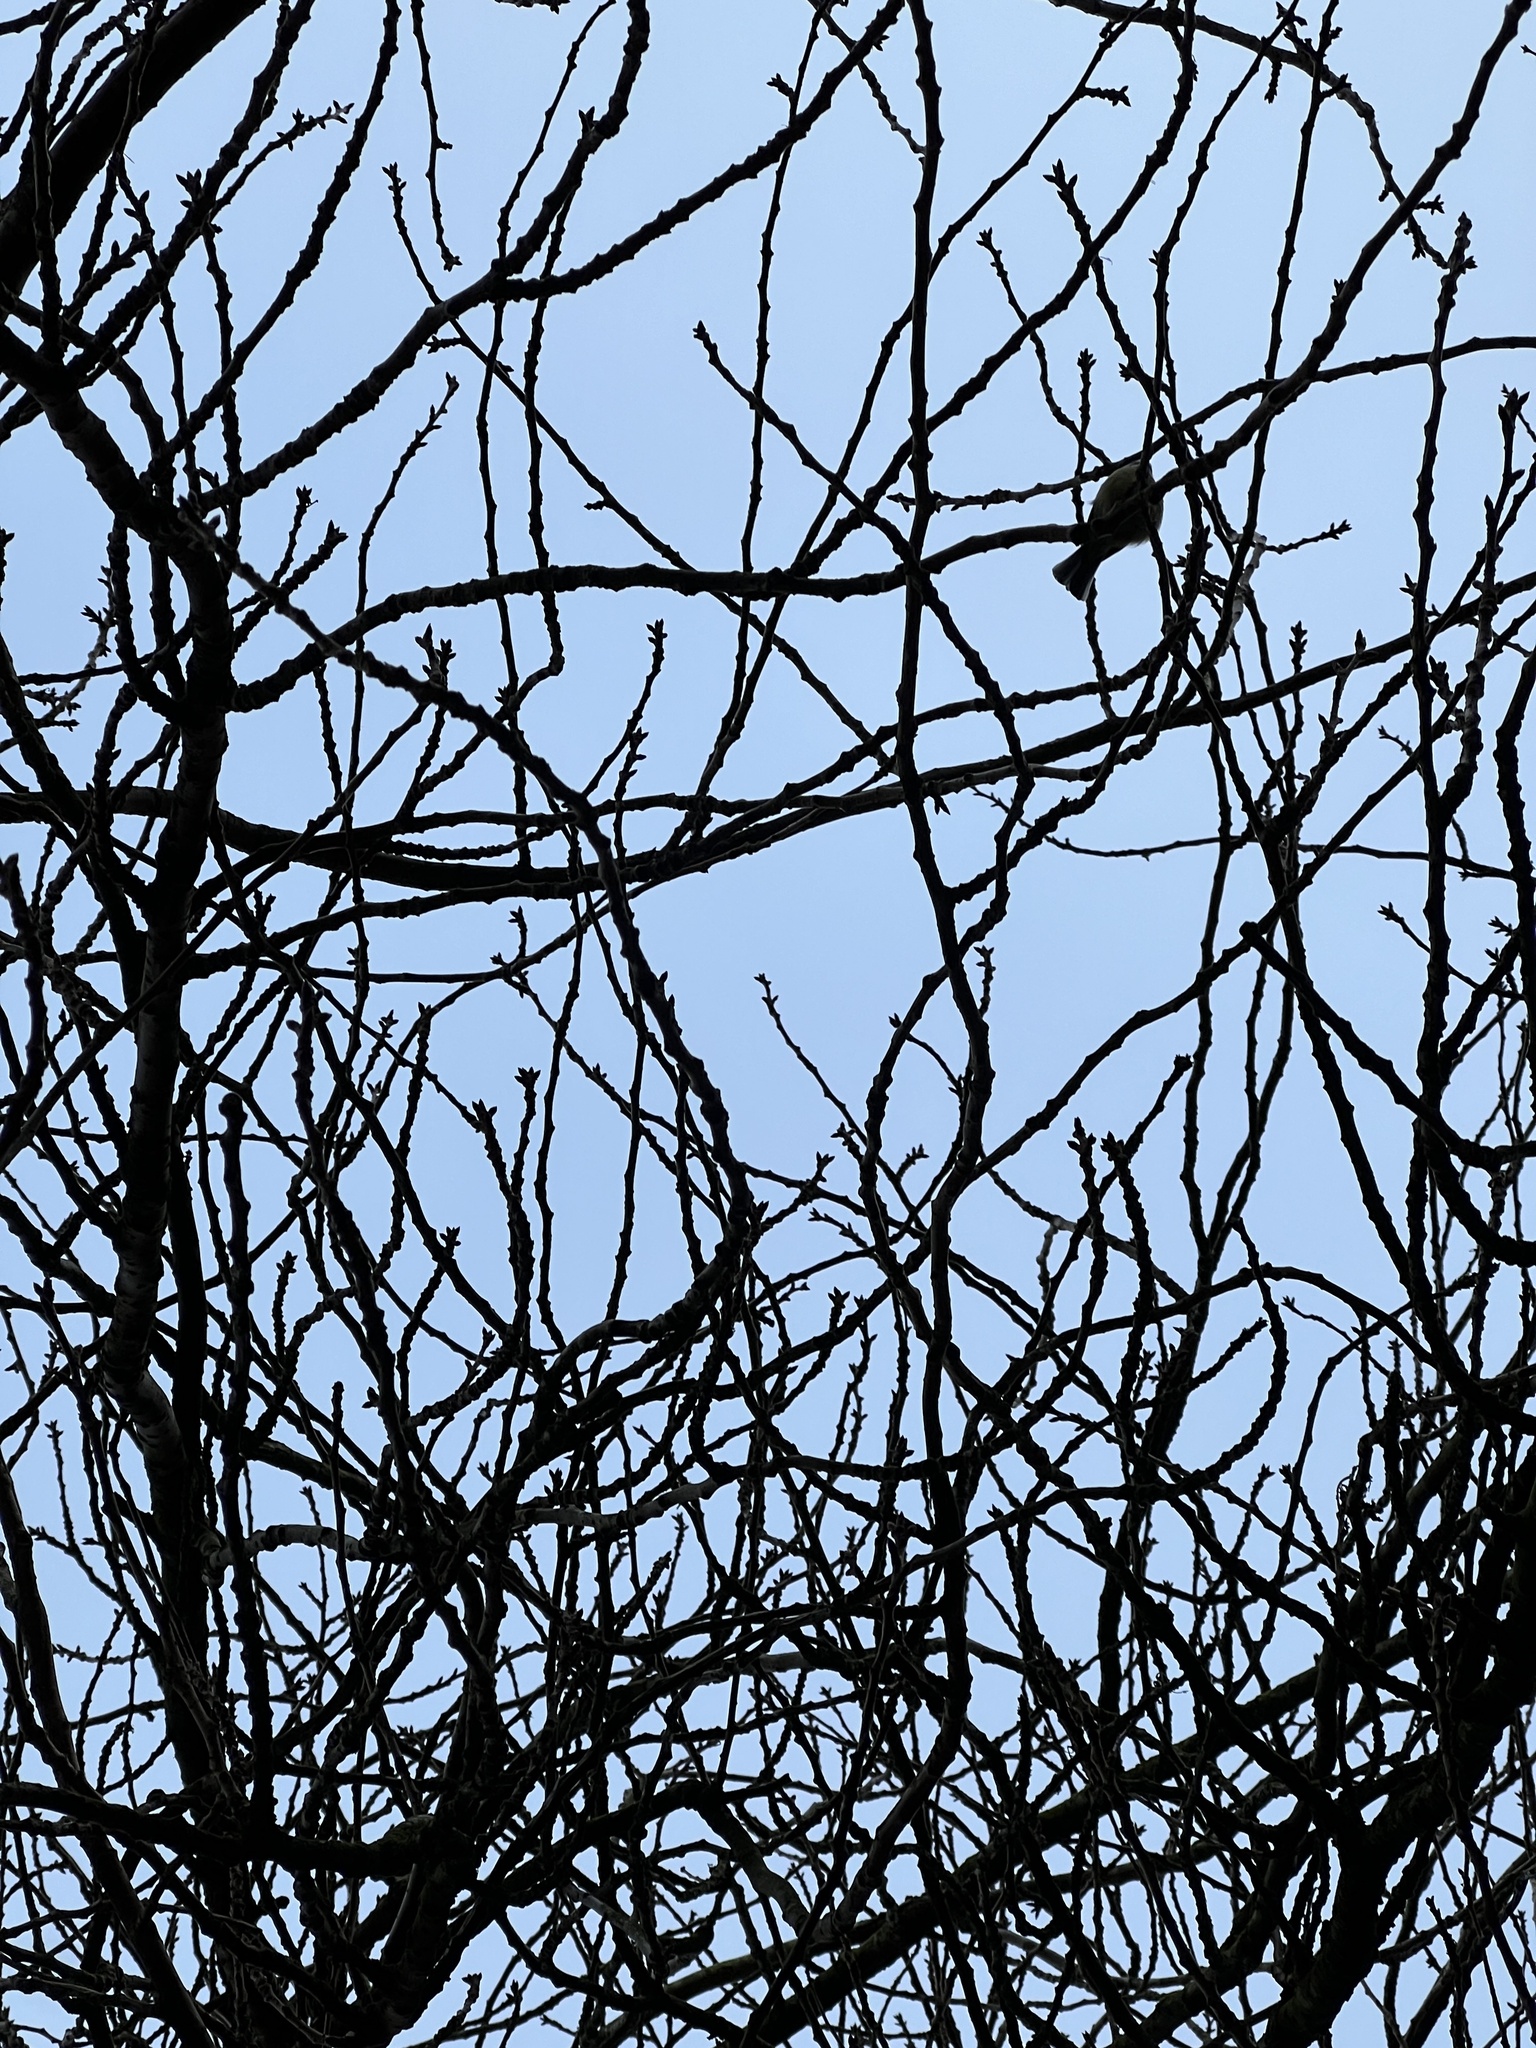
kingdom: Animalia
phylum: Chordata
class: Aves
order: Passeriformes
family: Paridae
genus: Cyanistes
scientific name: Cyanistes caeruleus
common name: Eurasian blue tit
